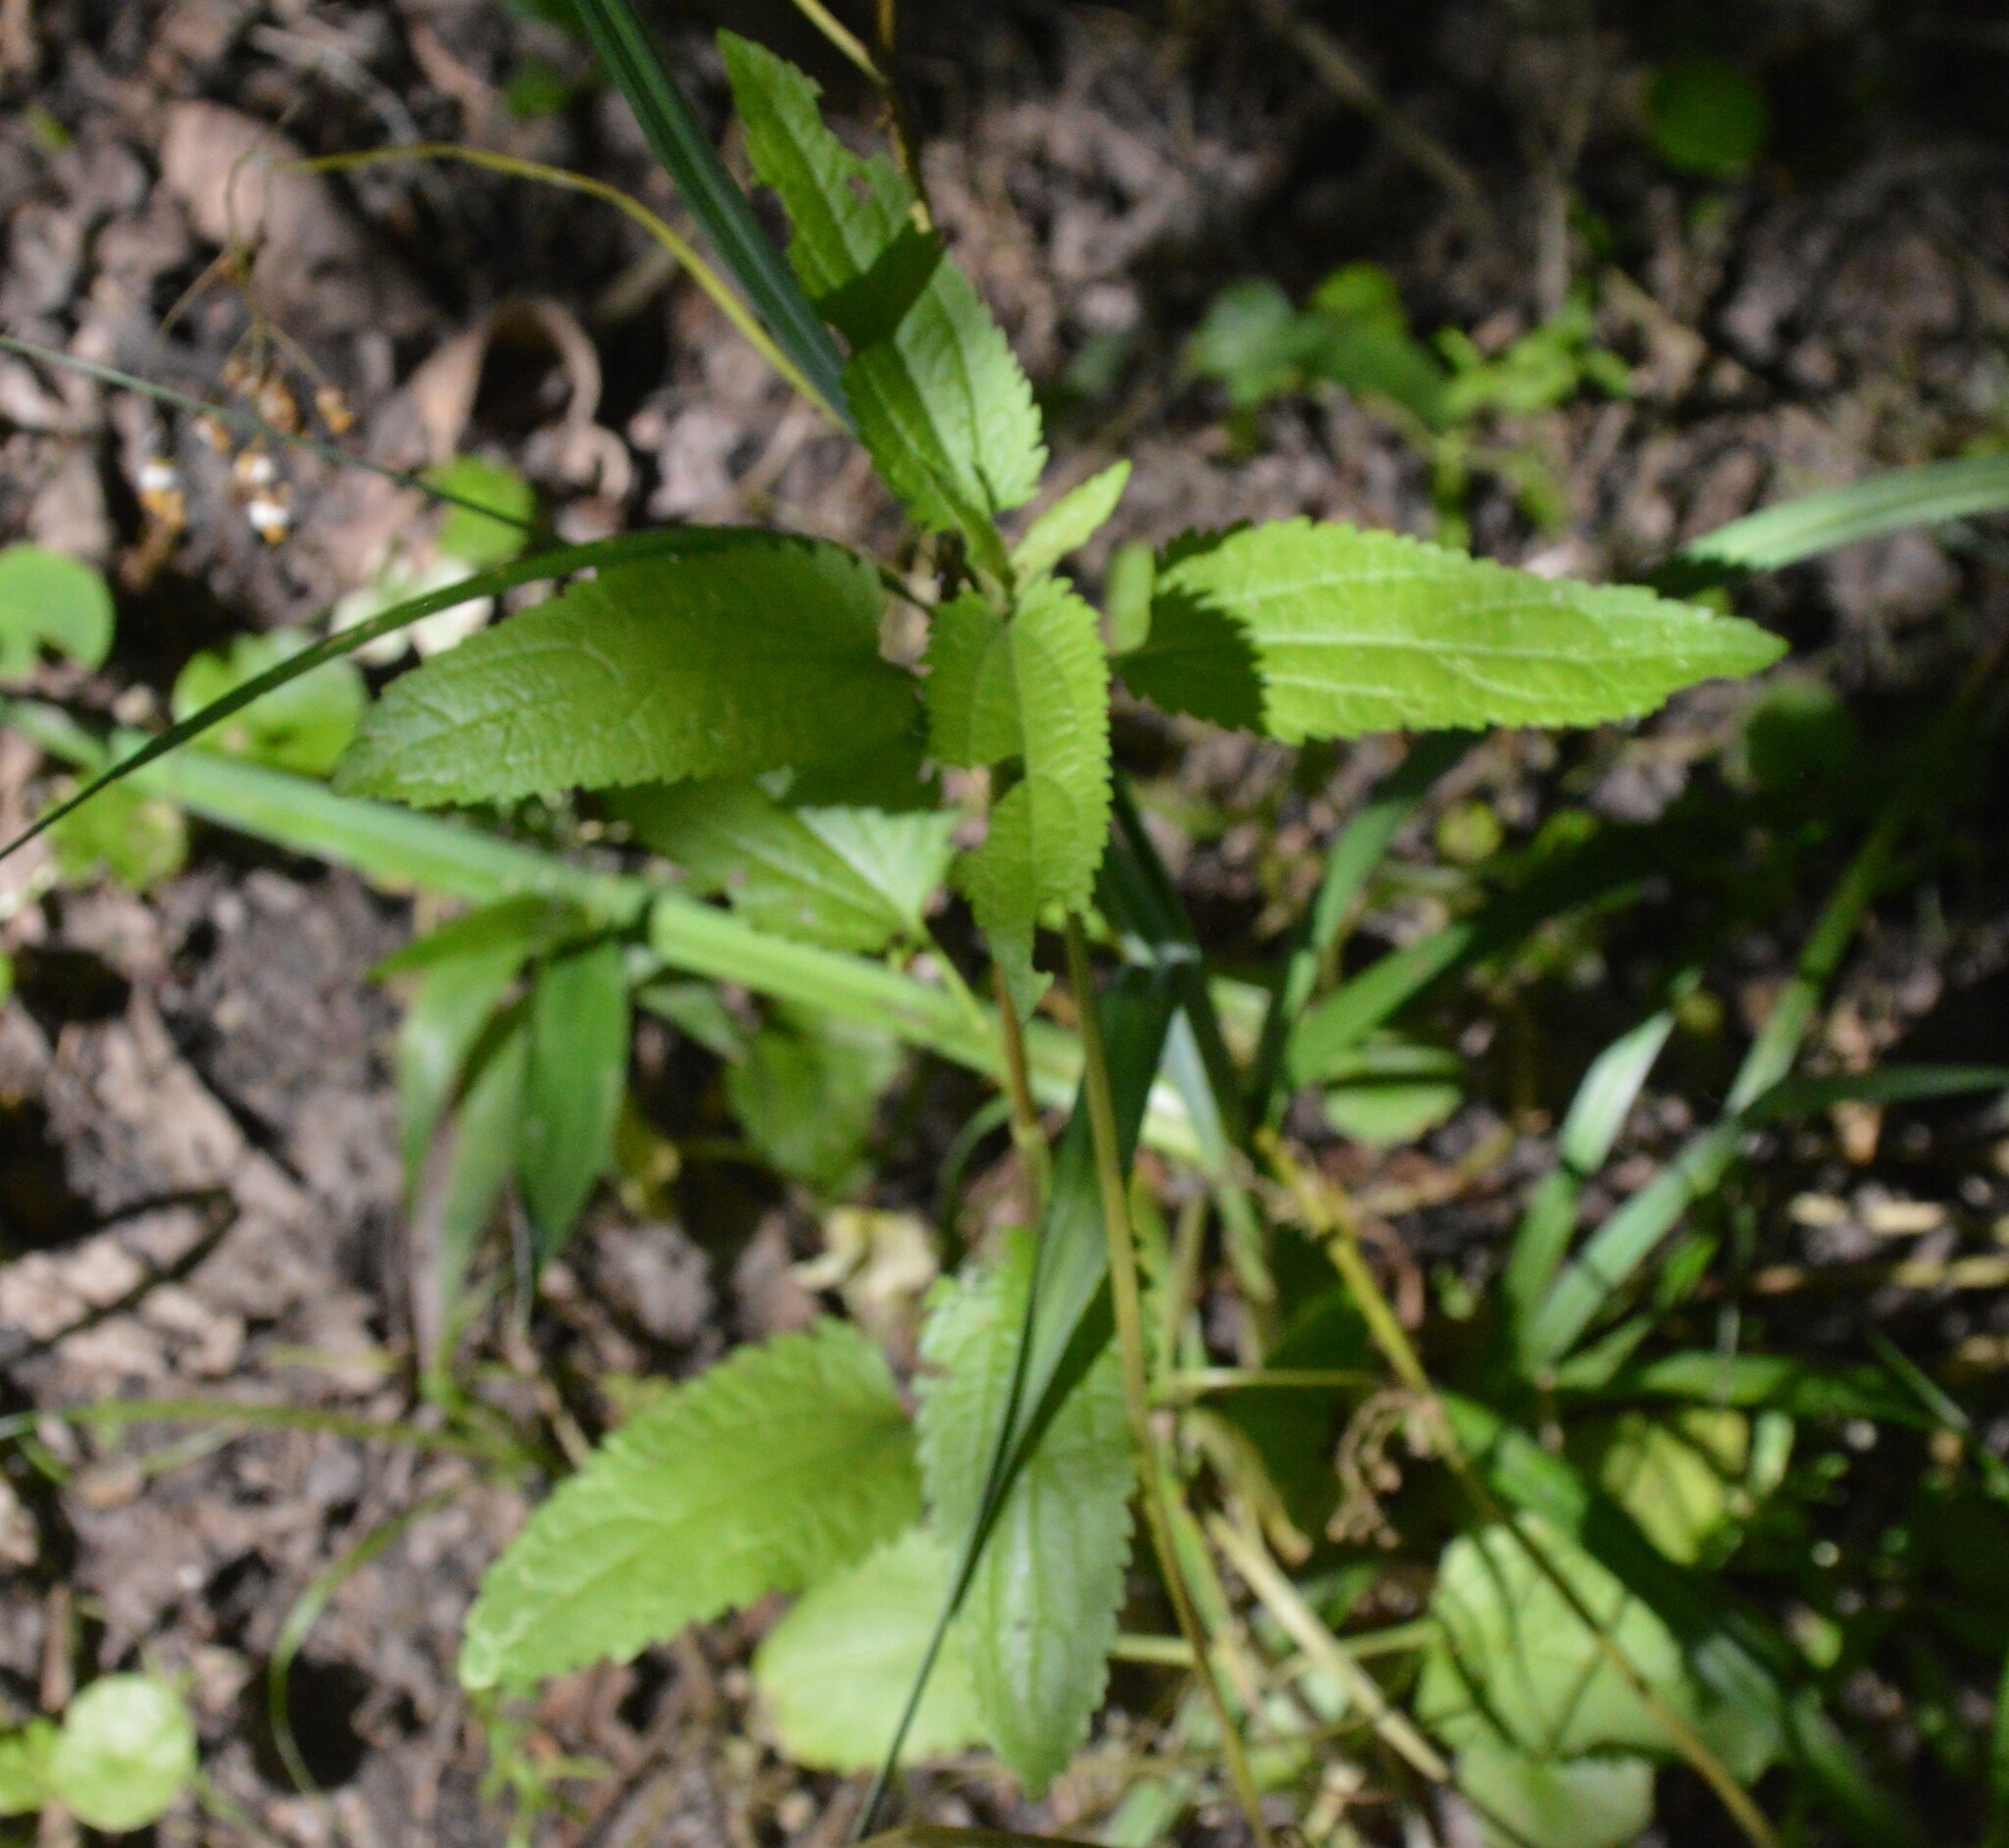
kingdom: Plantae
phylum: Tracheophyta
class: Magnoliopsida
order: Asterales
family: Asteraceae
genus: Eupatorium
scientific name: Eupatorium serotinum
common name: Late boneset
